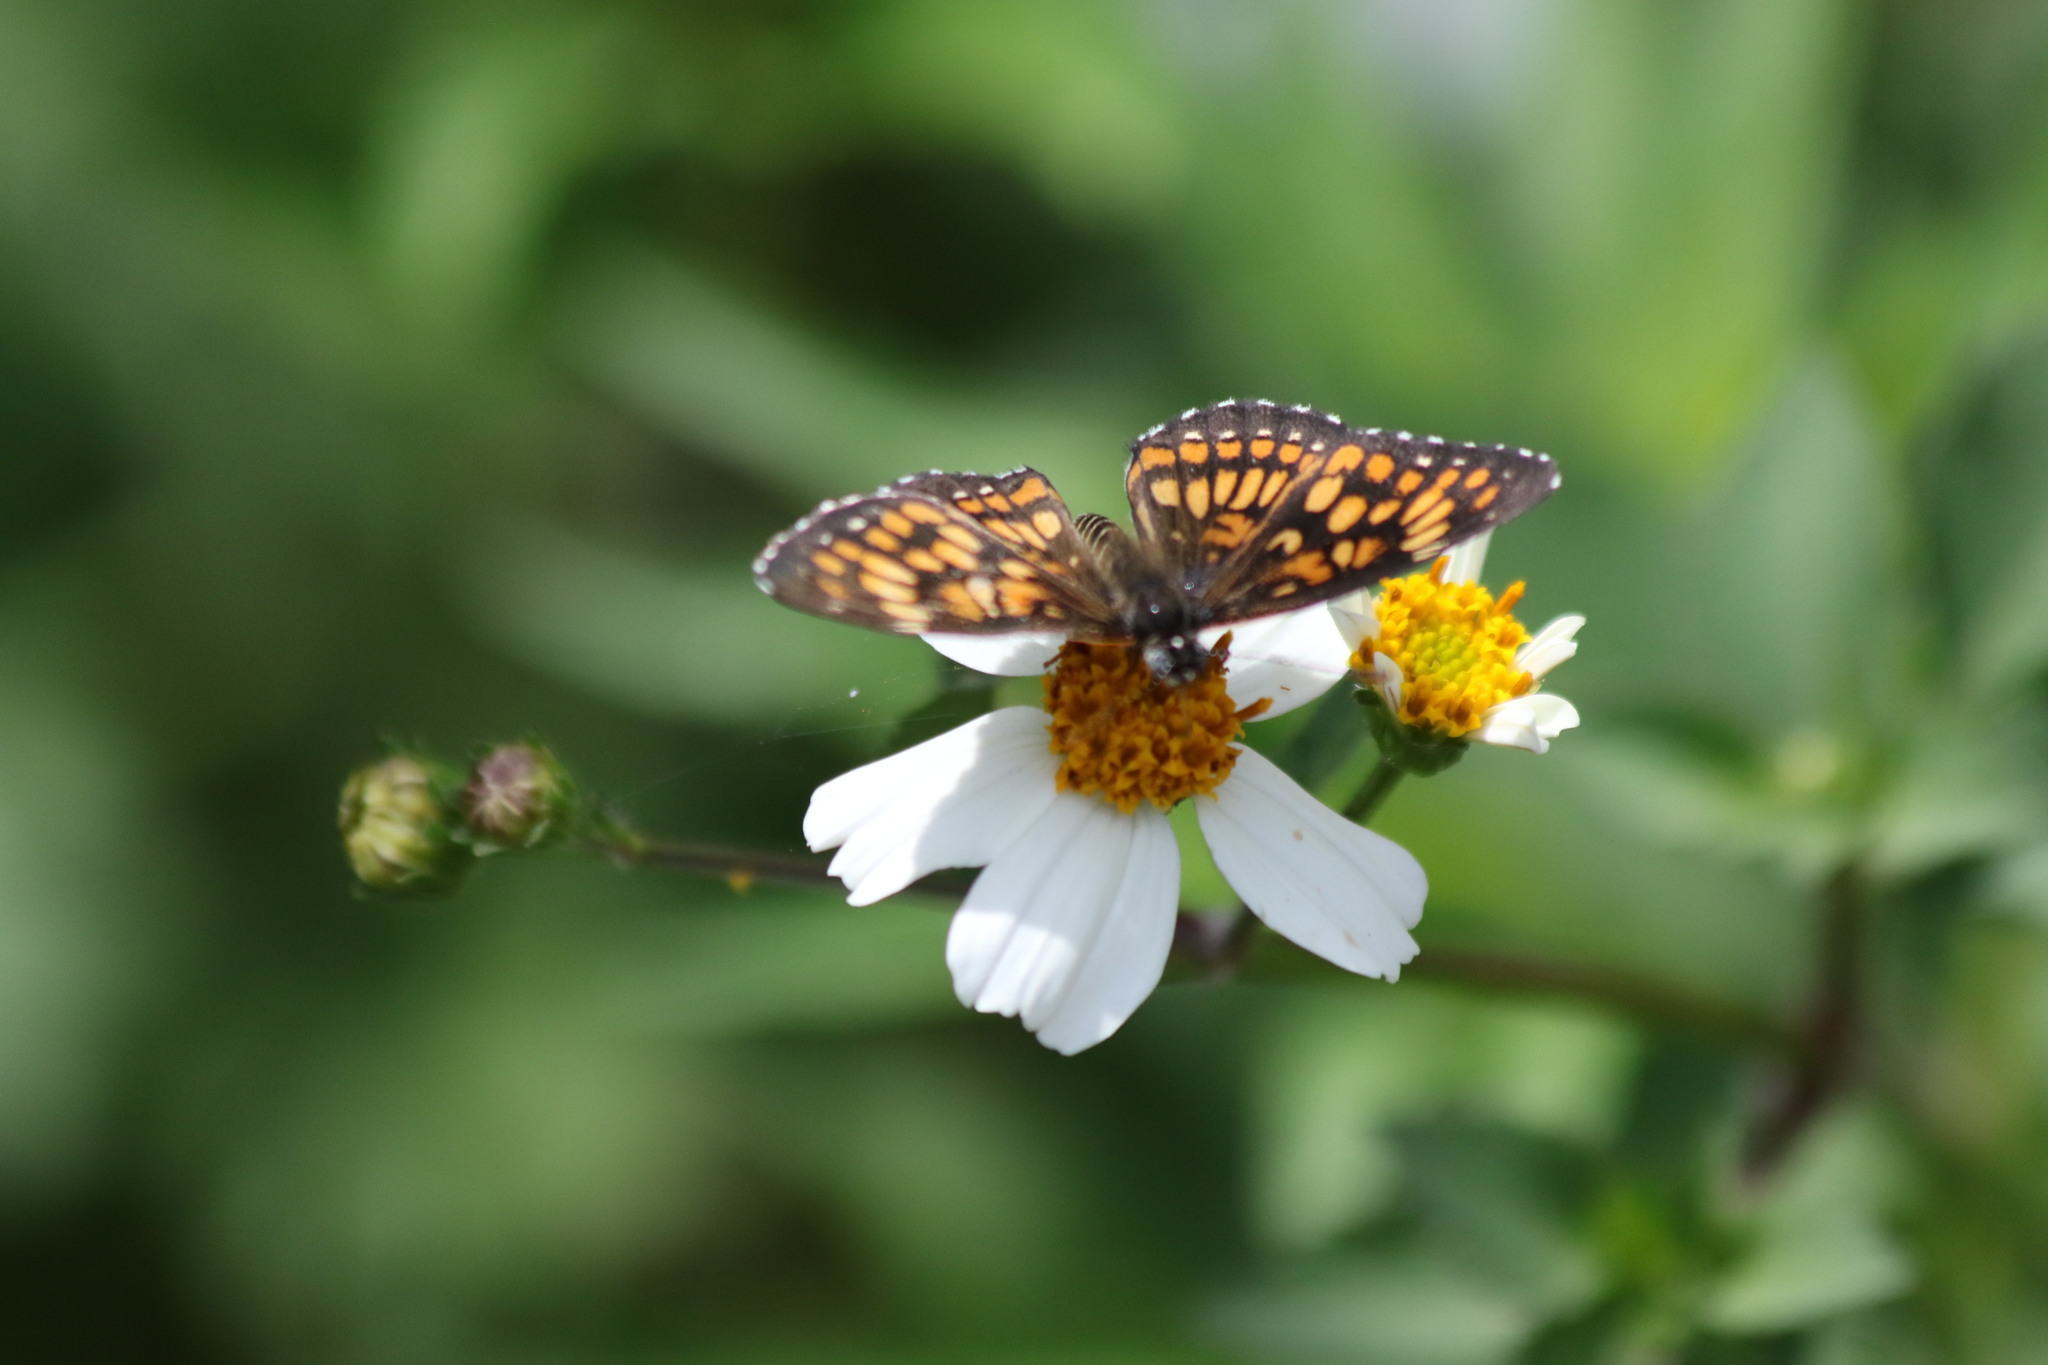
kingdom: Animalia
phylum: Arthropoda
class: Insecta
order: Lepidoptera
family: Nymphalidae
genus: Thessalia
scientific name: Thessalia theona
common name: Nymphalid moth
